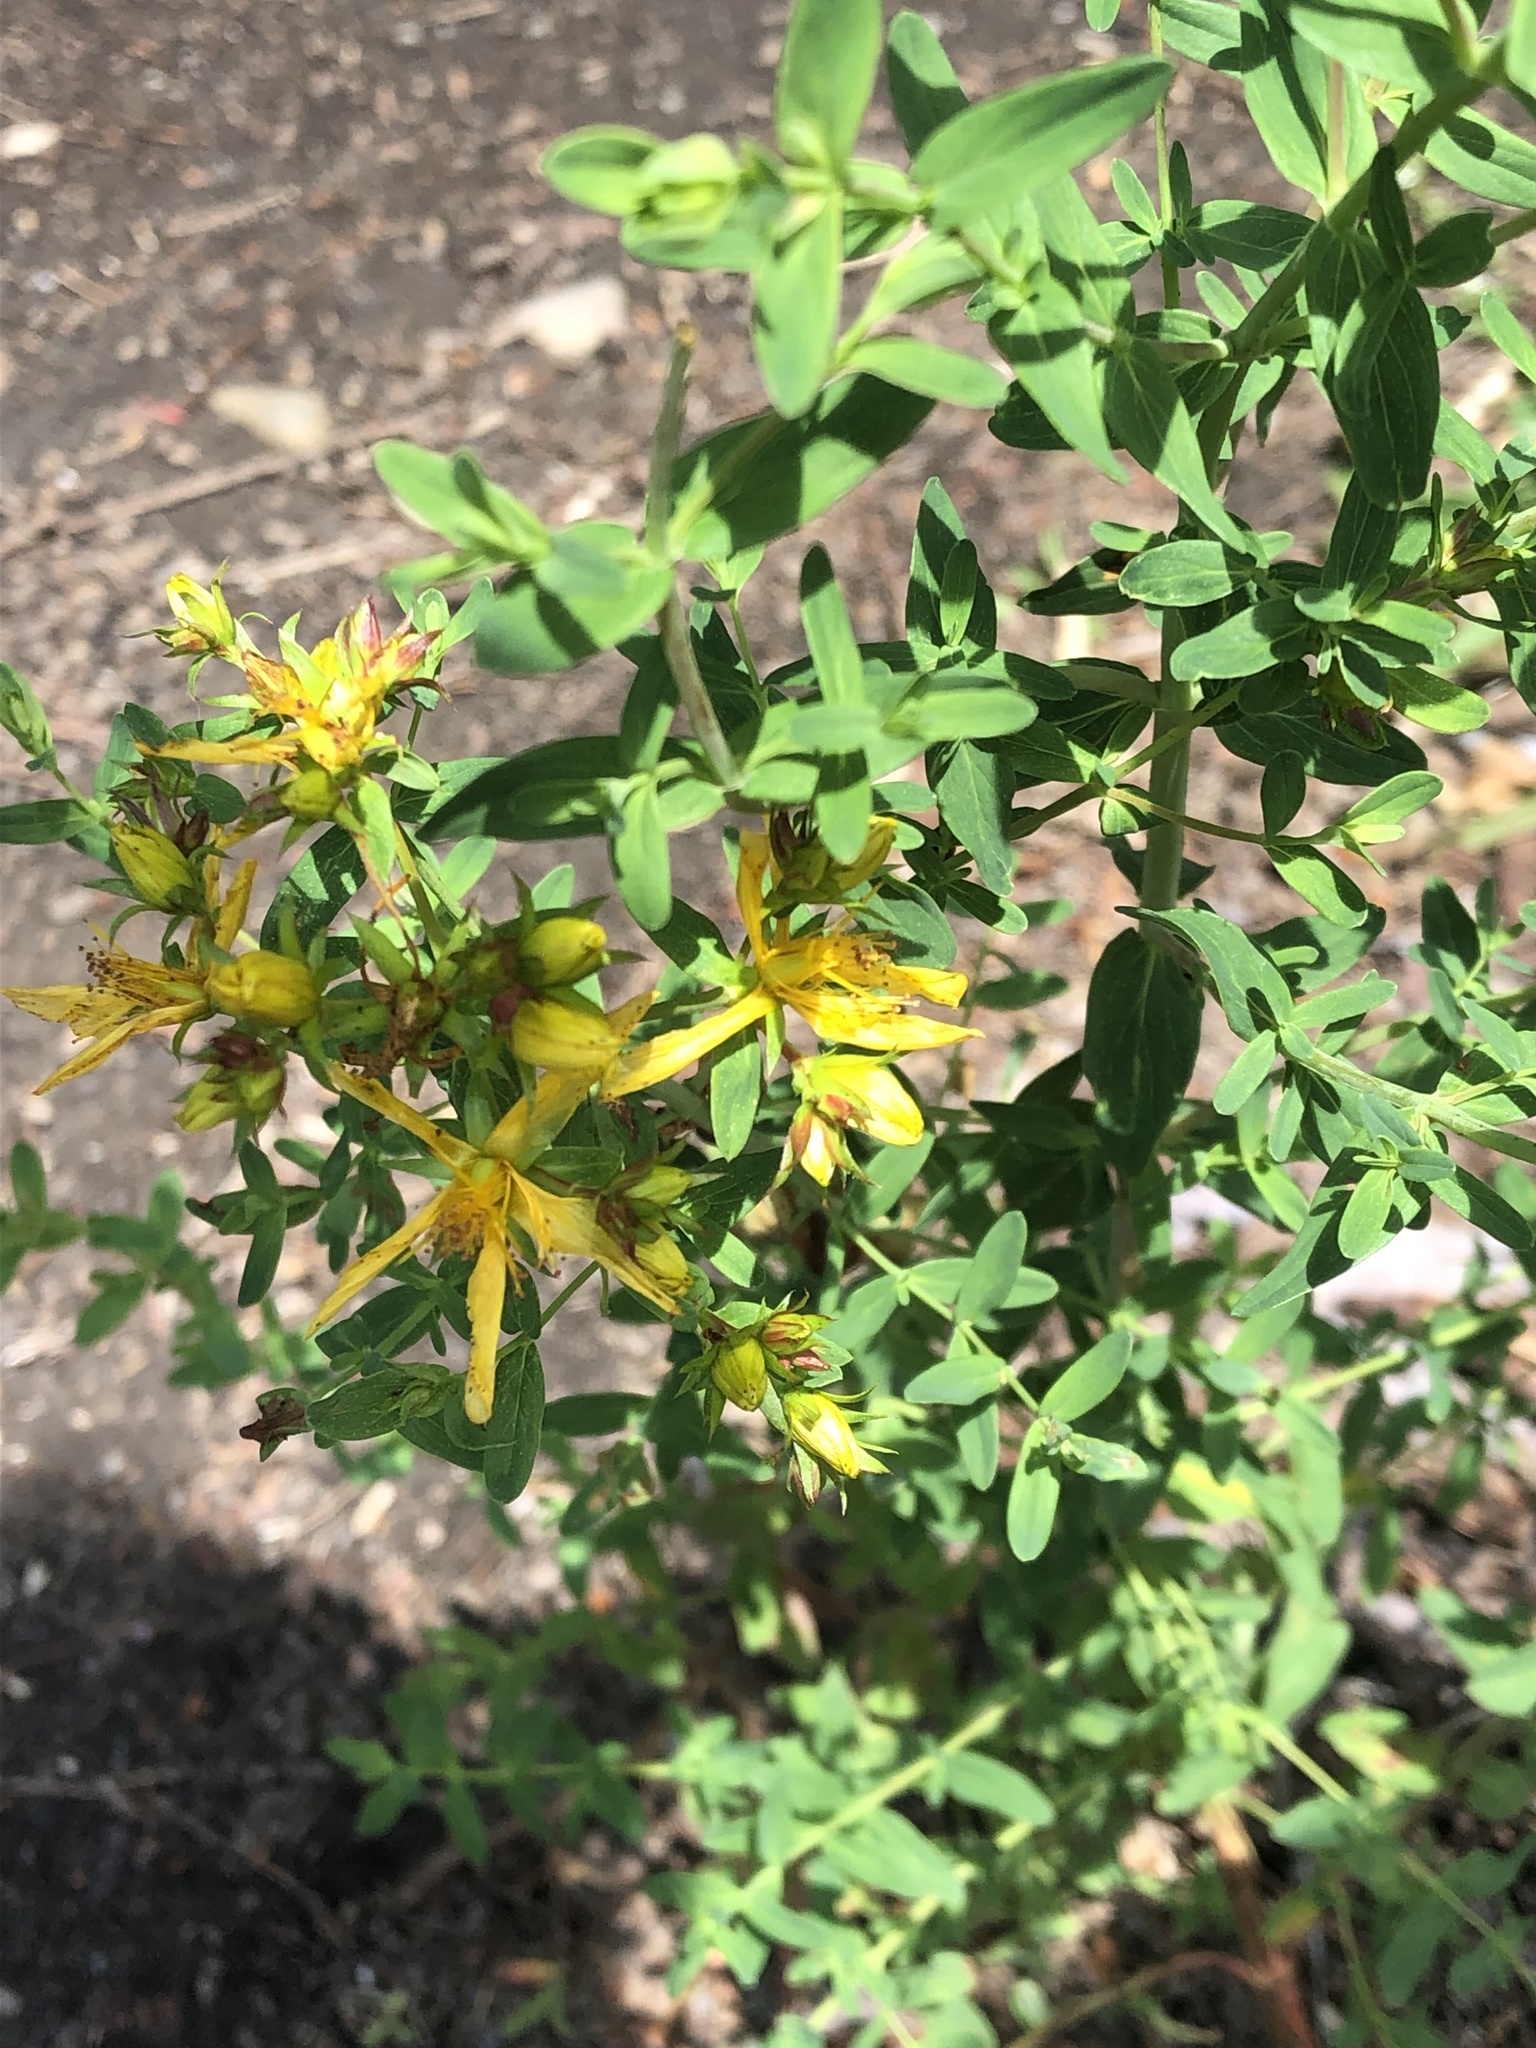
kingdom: Plantae
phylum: Tracheophyta
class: Magnoliopsida
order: Malpighiales
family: Hypericaceae
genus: Hypericum
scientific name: Hypericum perforatum
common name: Common st. johnswort
